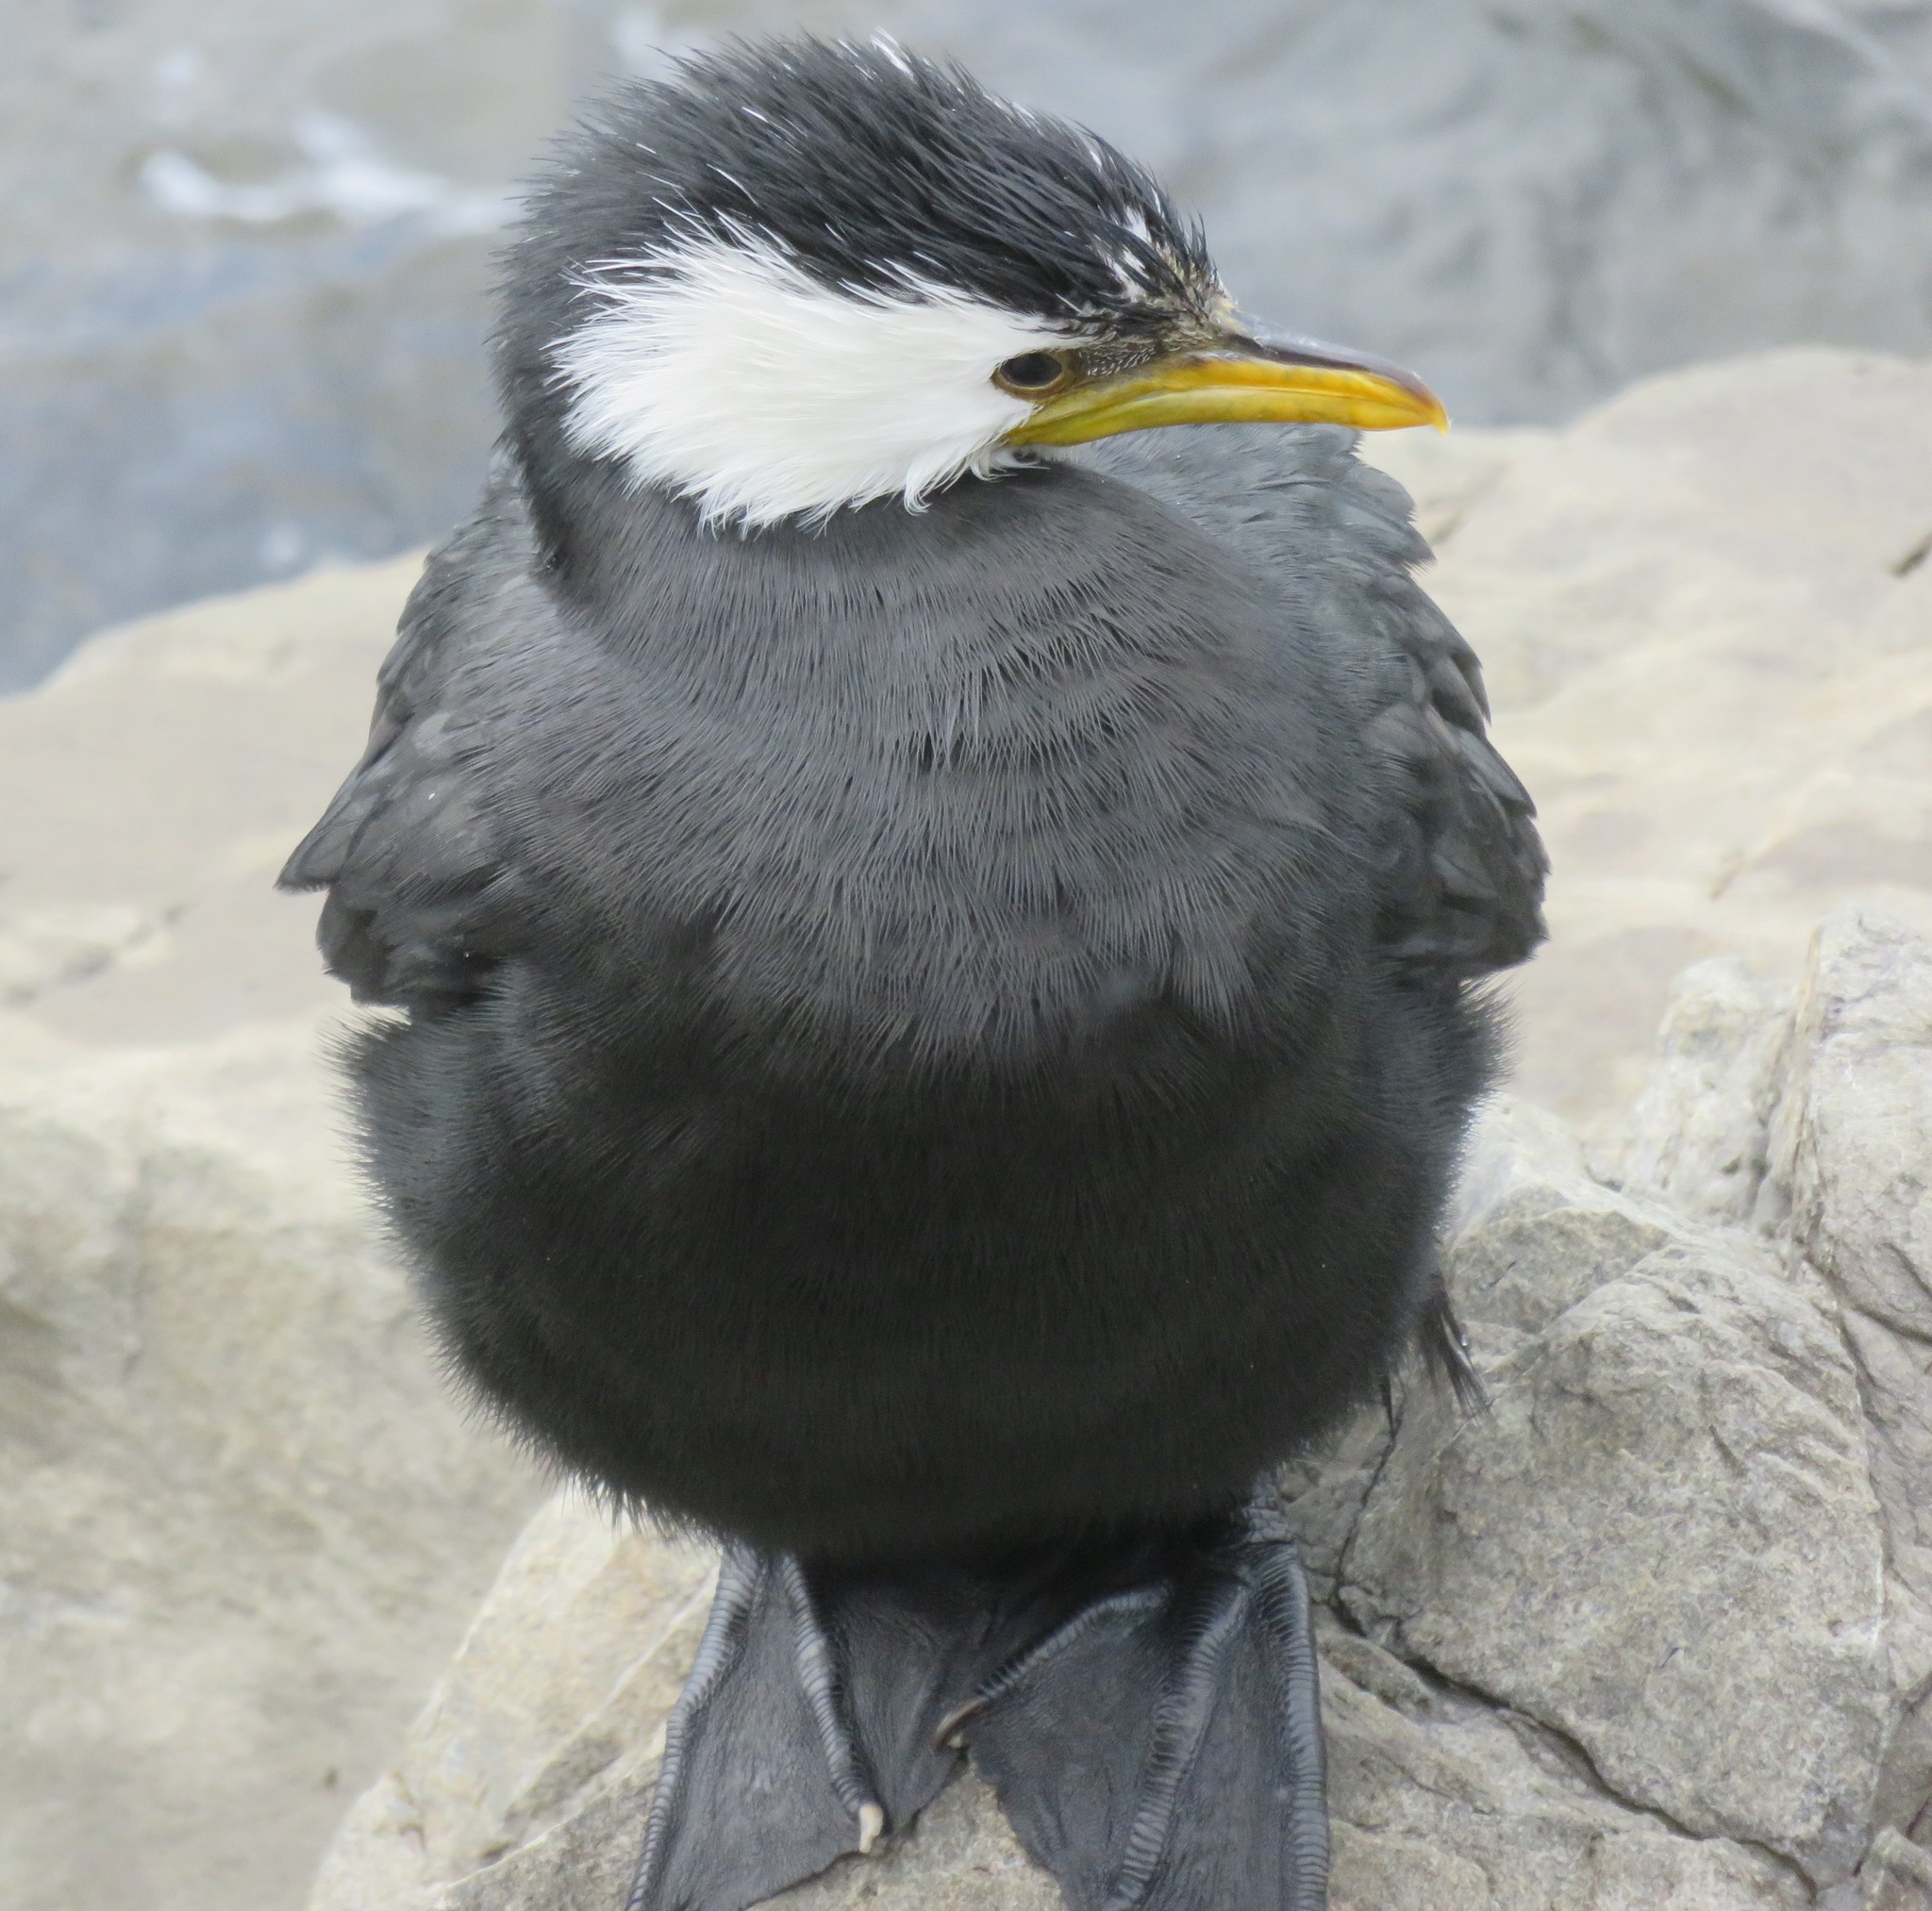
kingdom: Animalia
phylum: Chordata
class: Aves
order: Suliformes
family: Phalacrocoracidae
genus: Microcarbo
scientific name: Microcarbo melanoleucos
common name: Little pied cormorant
